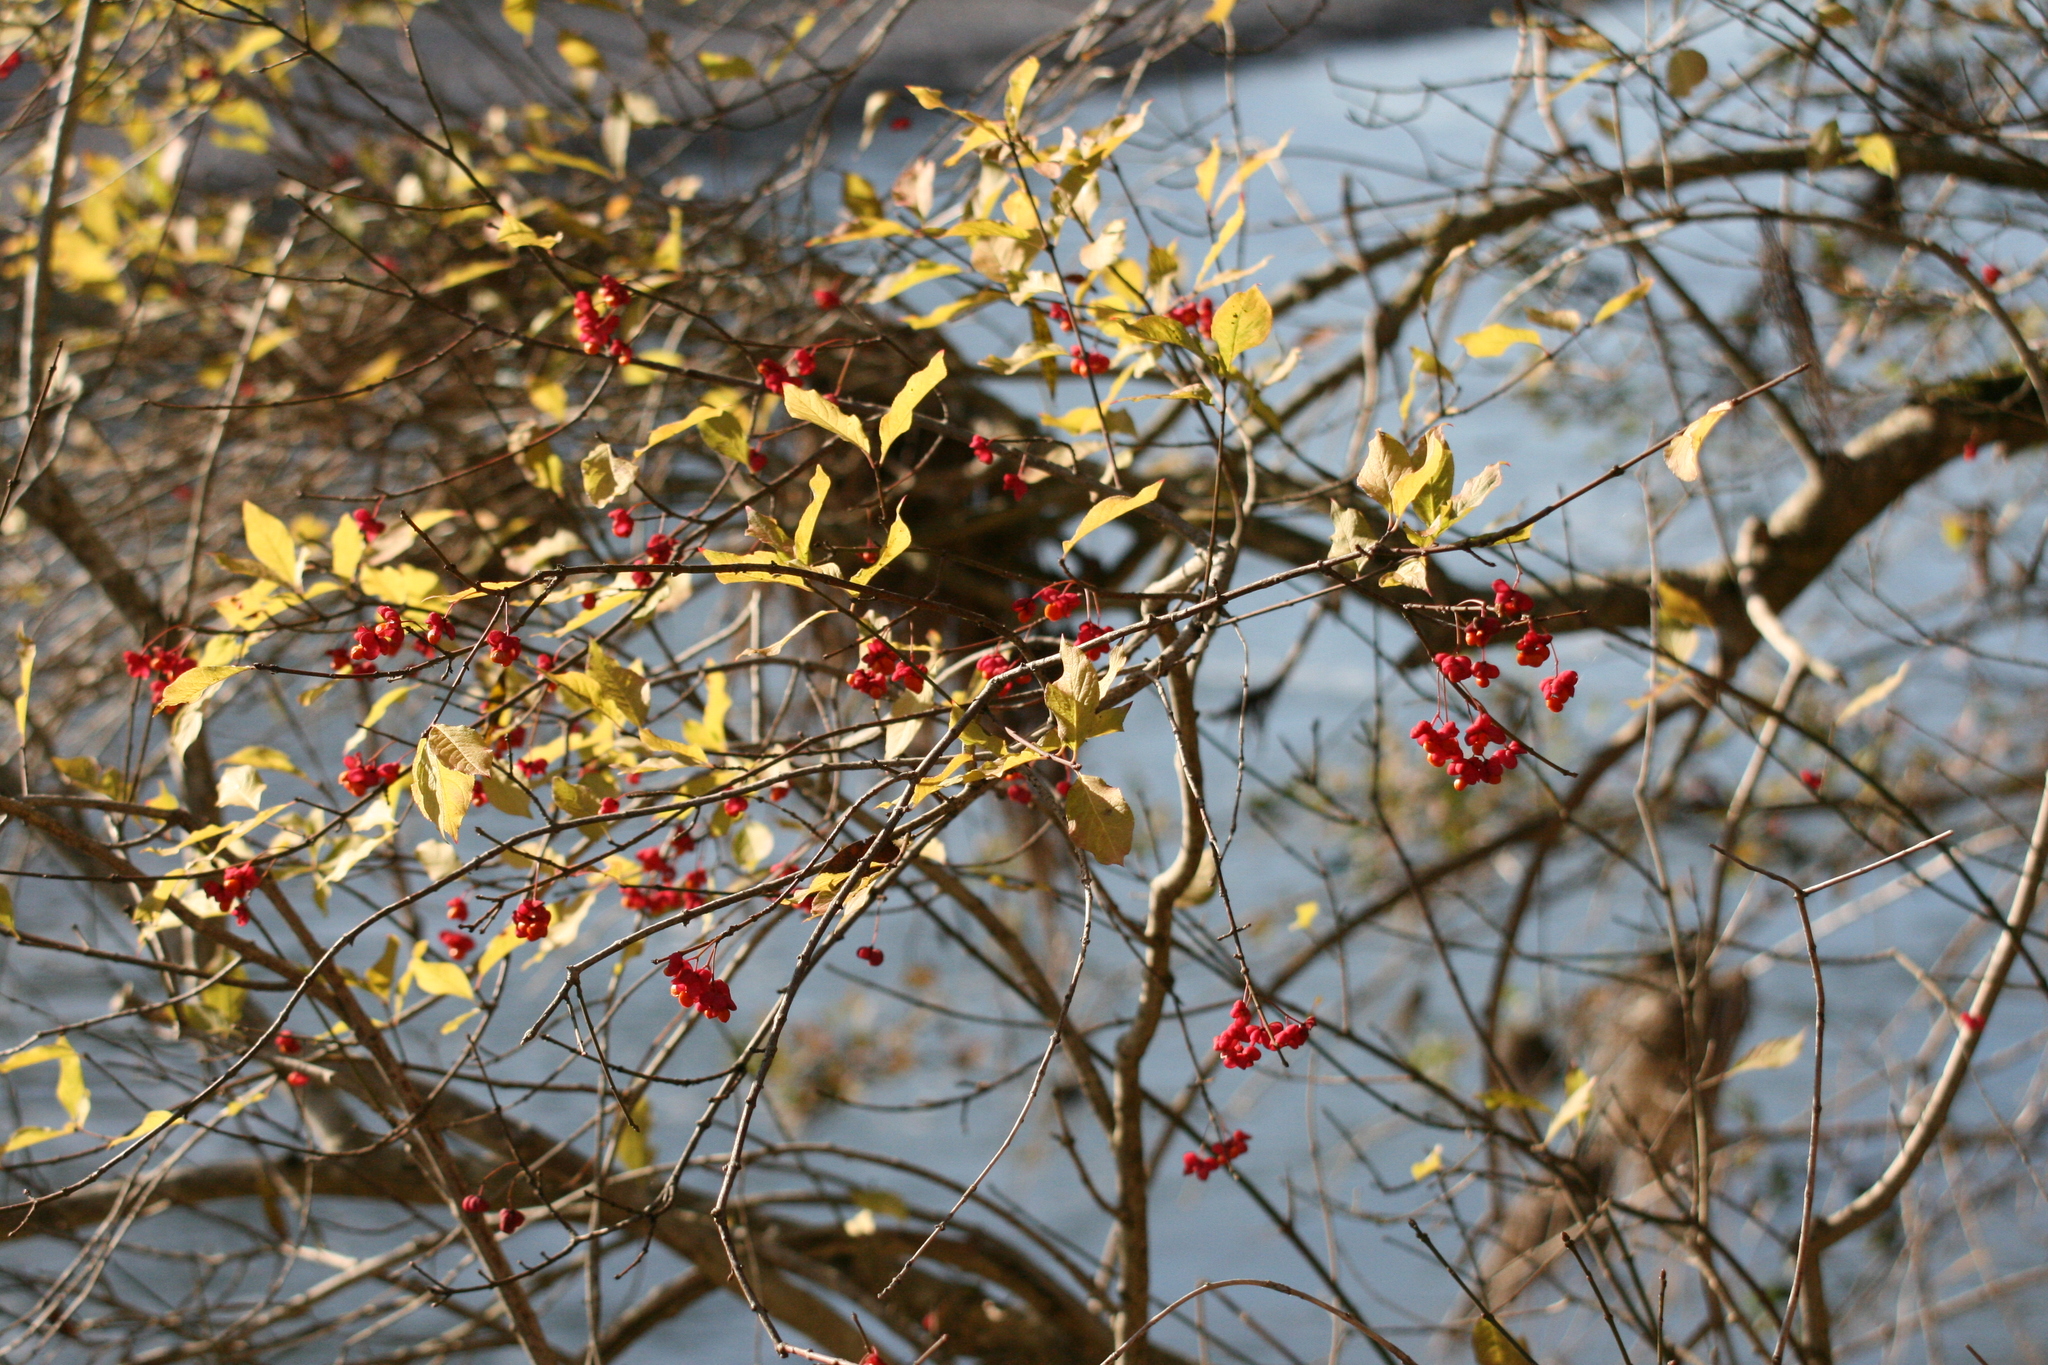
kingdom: Plantae
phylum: Tracheophyta
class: Magnoliopsida
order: Celastrales
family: Celastraceae
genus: Euonymus
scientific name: Euonymus europaeus
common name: Spindle
